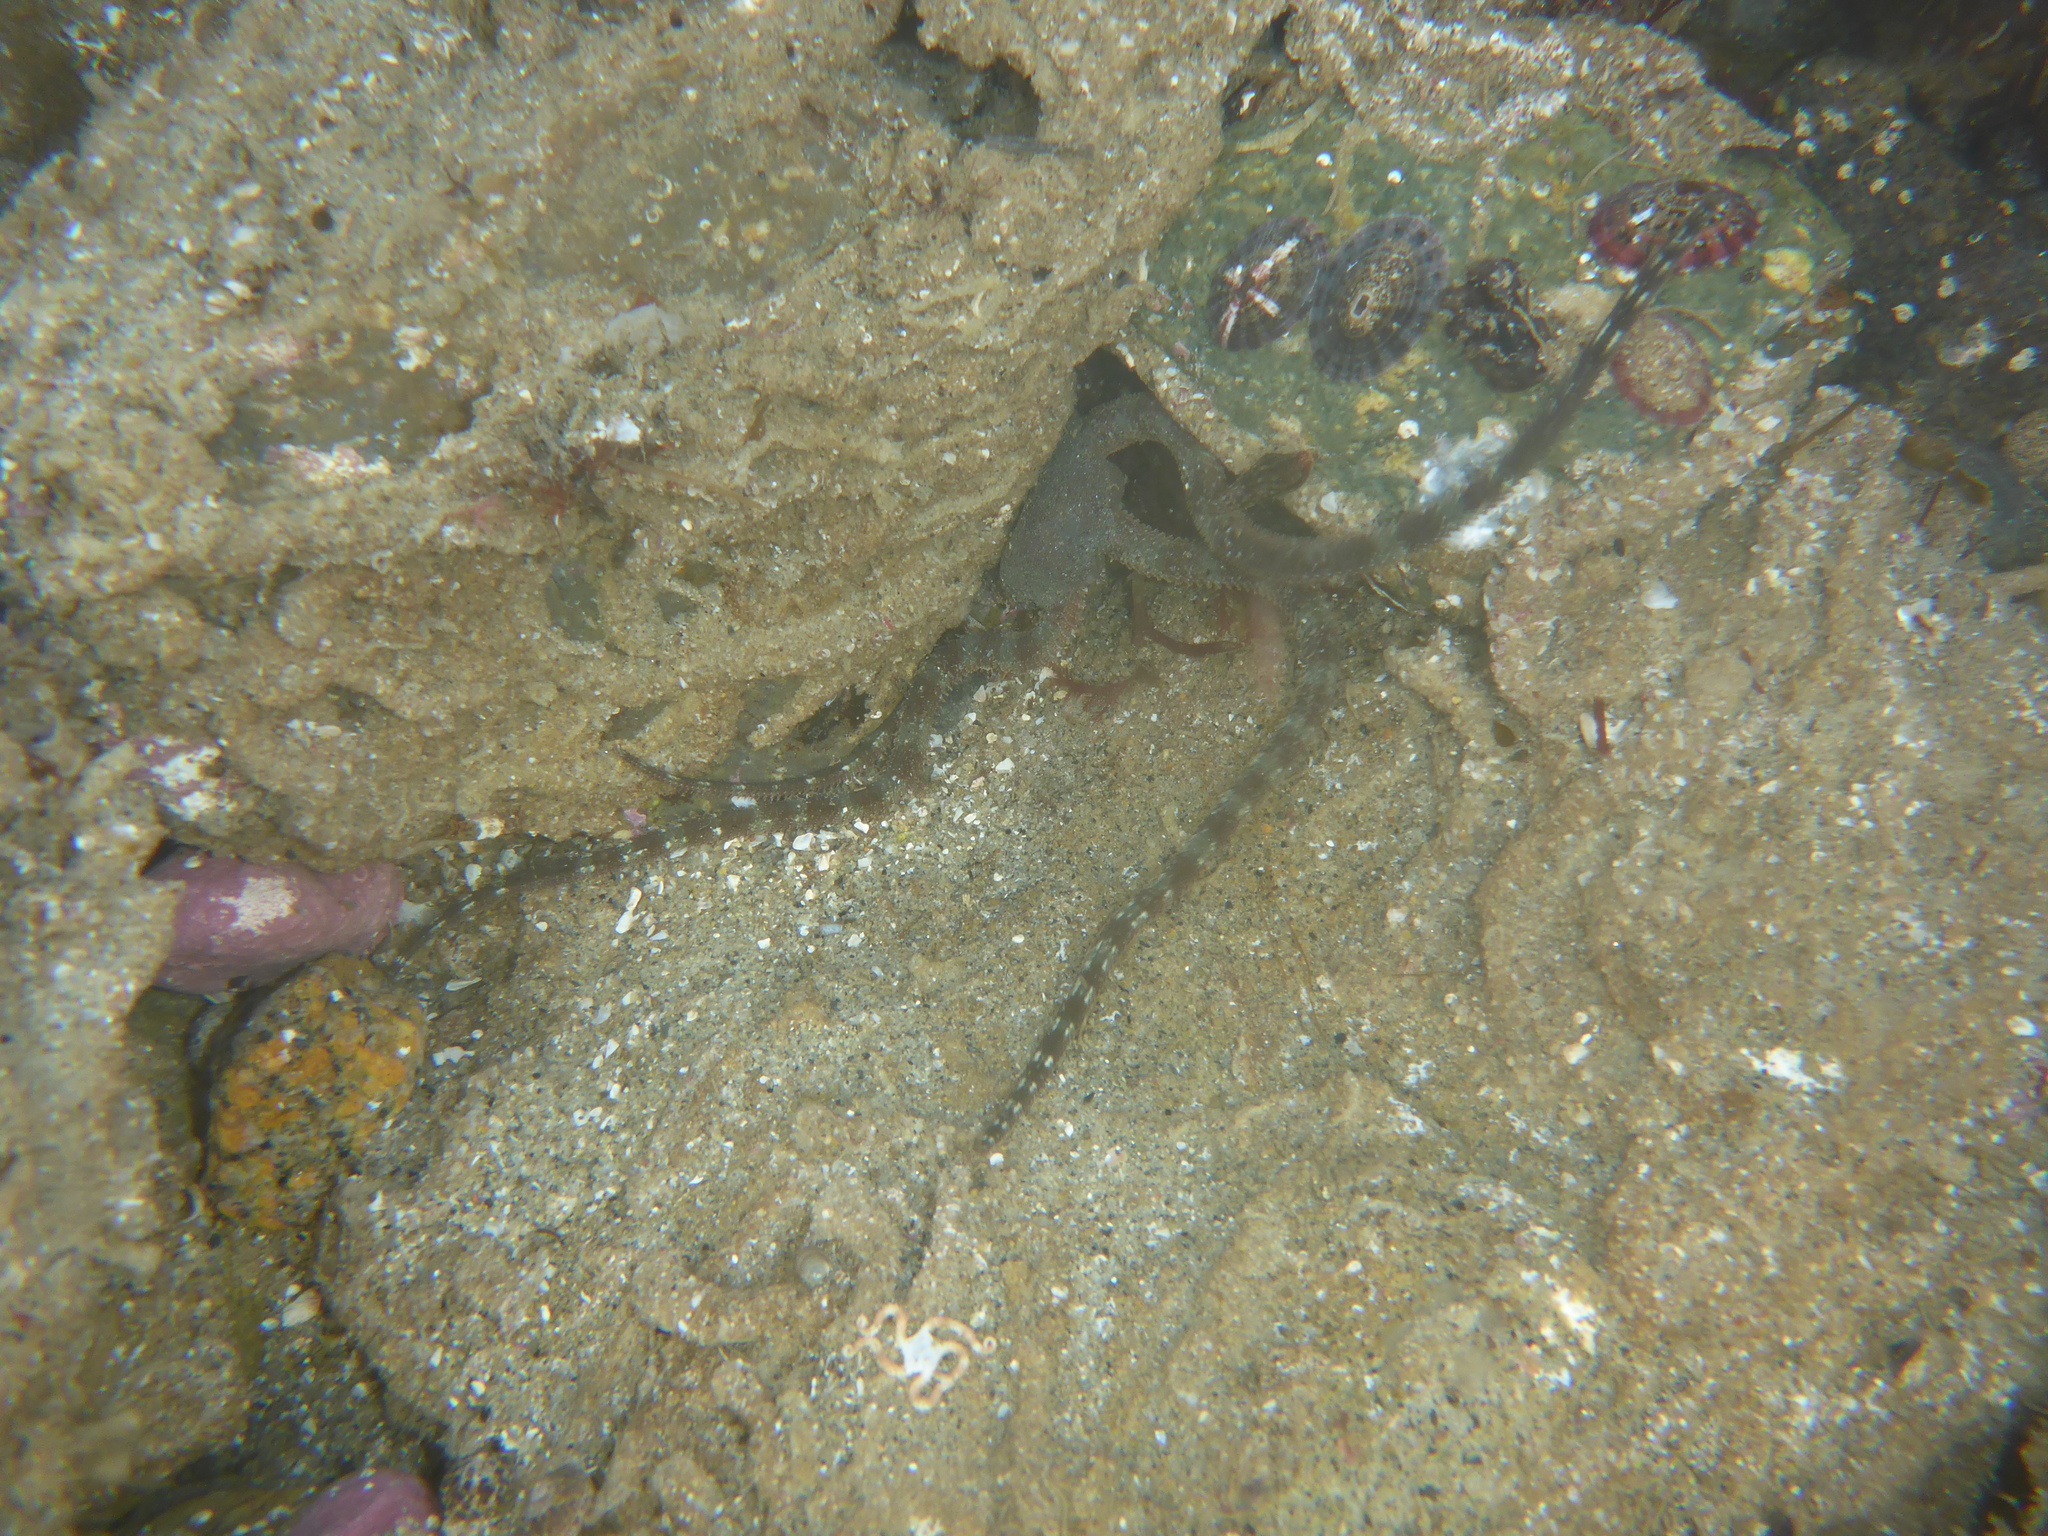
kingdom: Animalia
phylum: Echinodermata
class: Ophiuroidea
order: Ophiacanthida
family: Ophiodermatidae
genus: Ophioderma
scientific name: Ophioderma panamense
